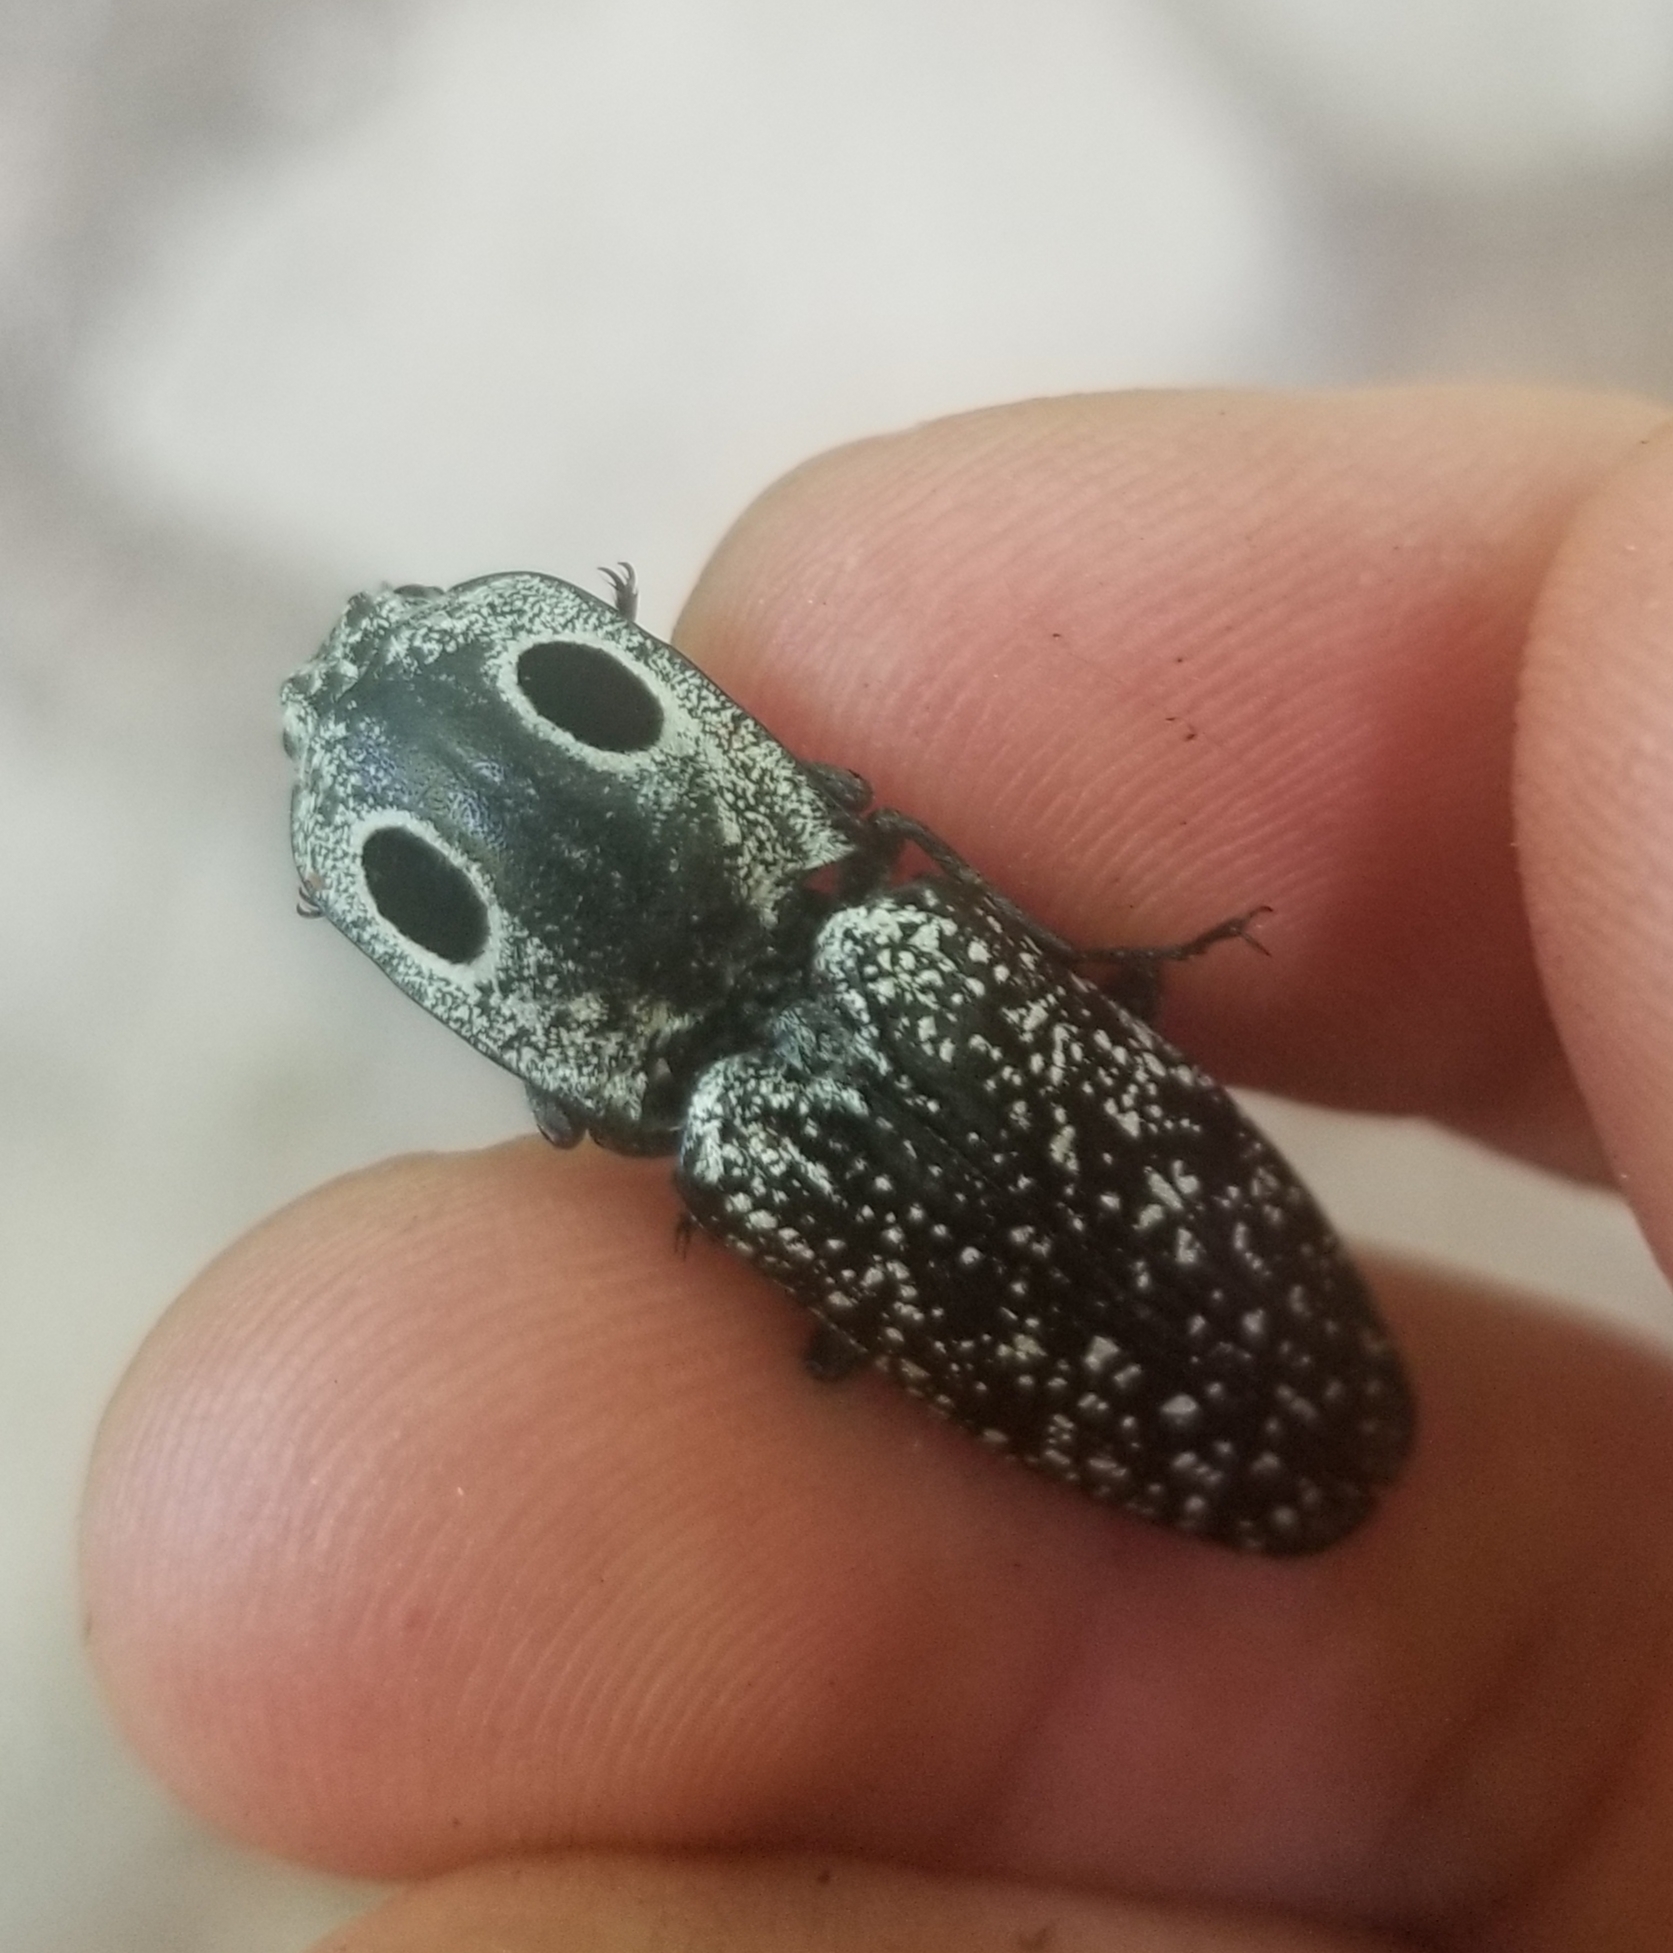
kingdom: Animalia
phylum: Arthropoda
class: Insecta
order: Coleoptera
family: Elateridae
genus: Alaus
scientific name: Alaus oculatus
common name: Eastern eyed click beetle
